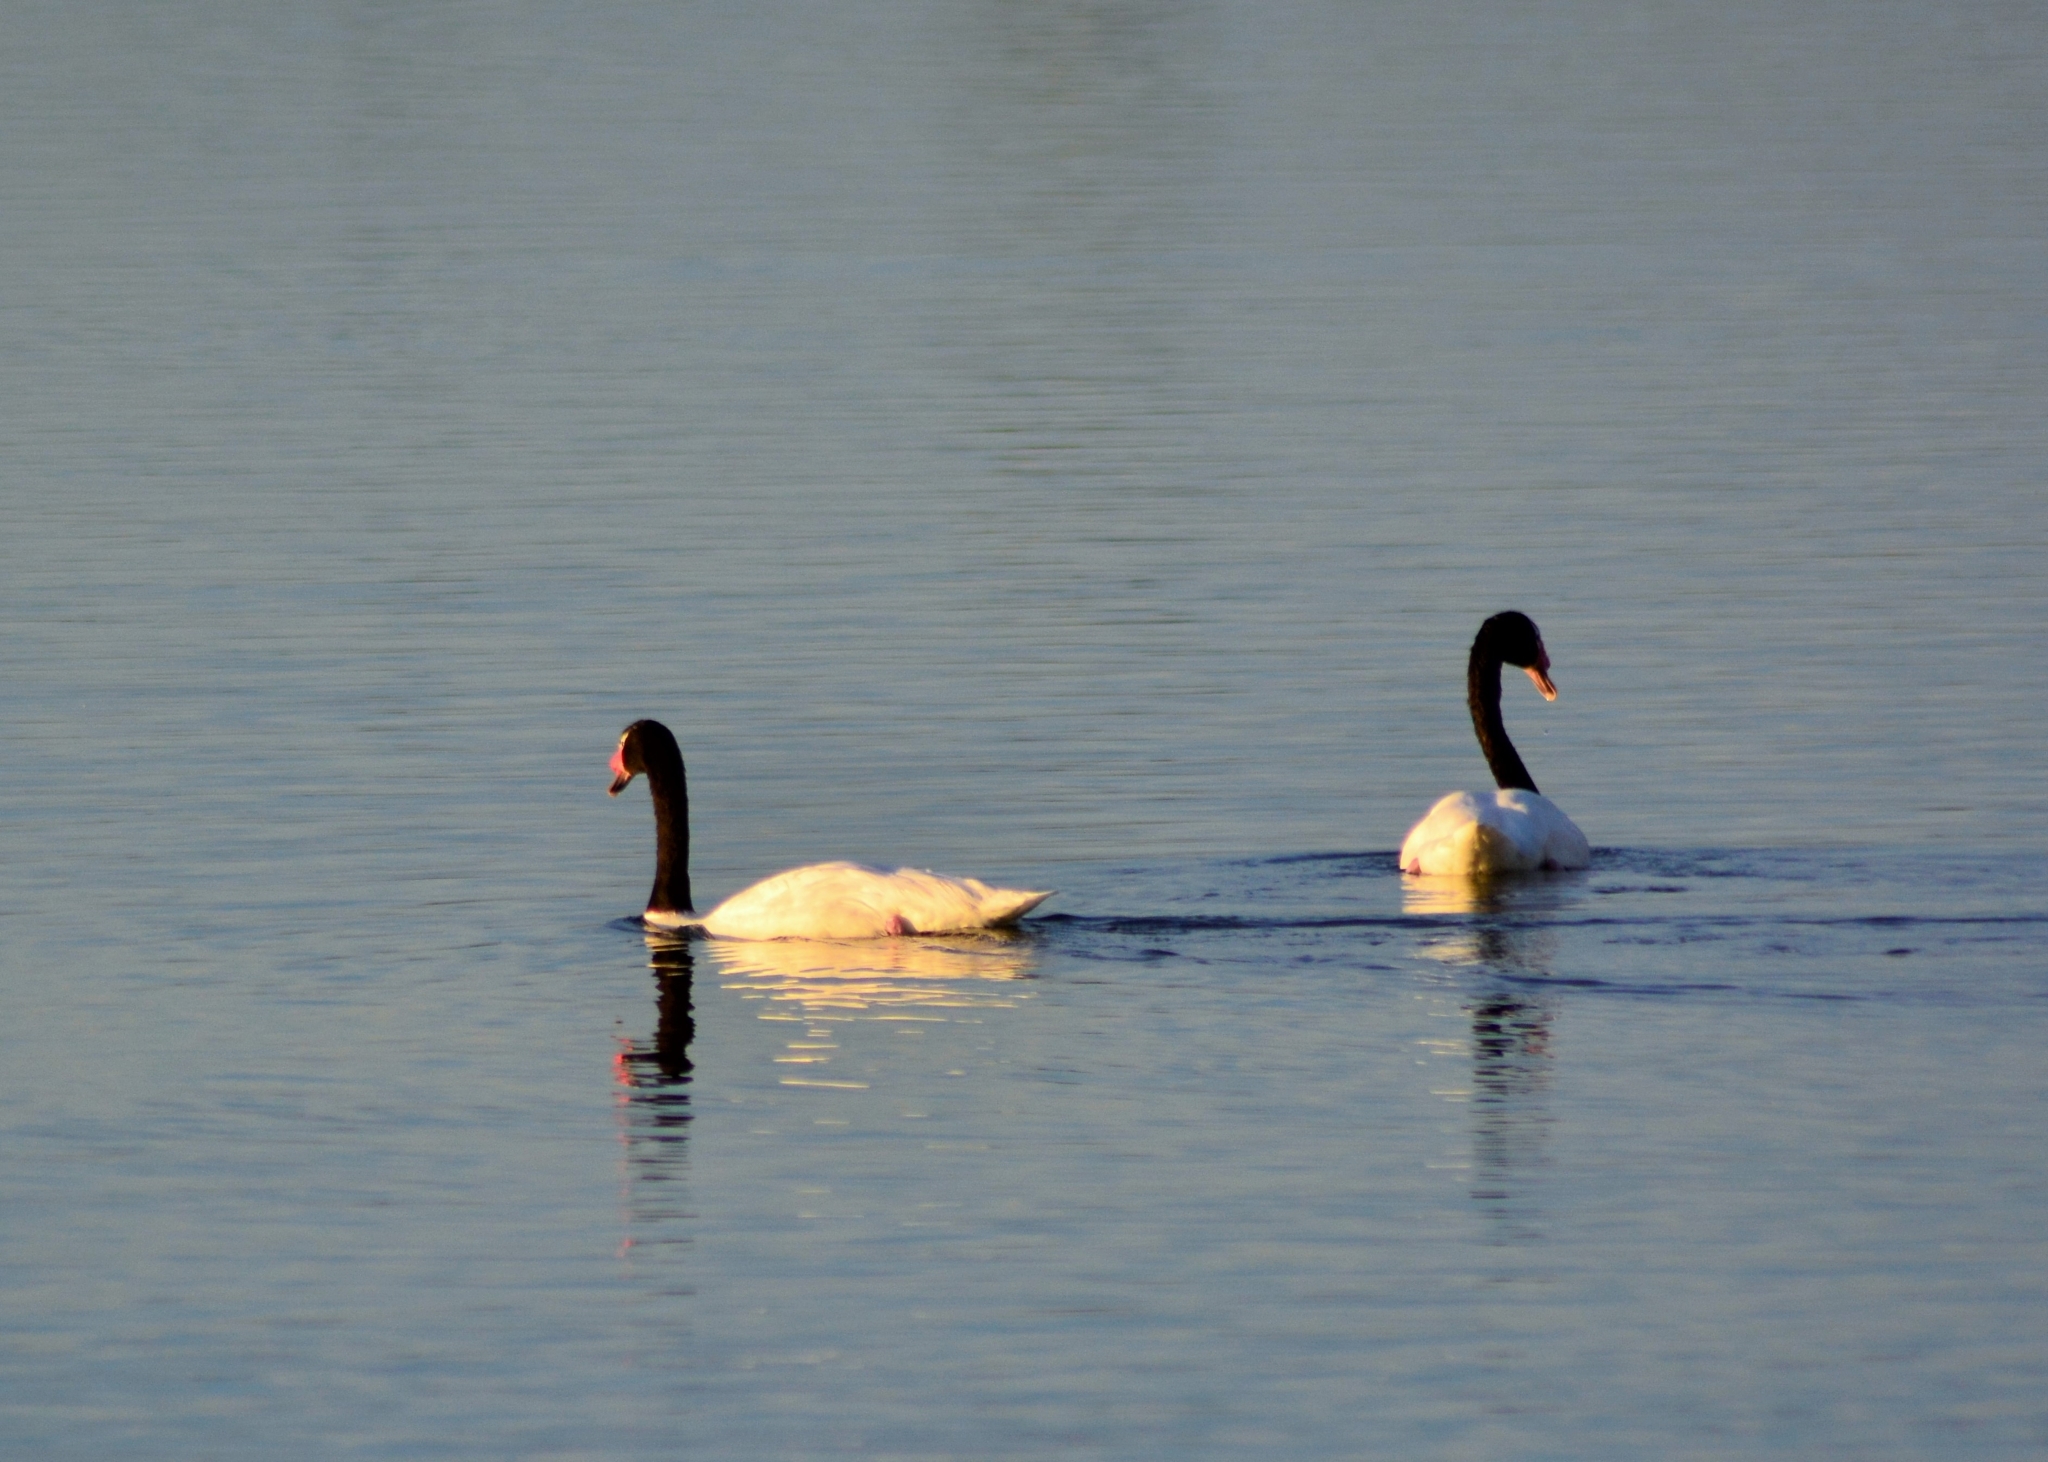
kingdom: Animalia
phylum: Chordata
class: Aves
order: Anseriformes
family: Anatidae
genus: Cygnus
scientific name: Cygnus melancoryphus
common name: Black-necked swan
